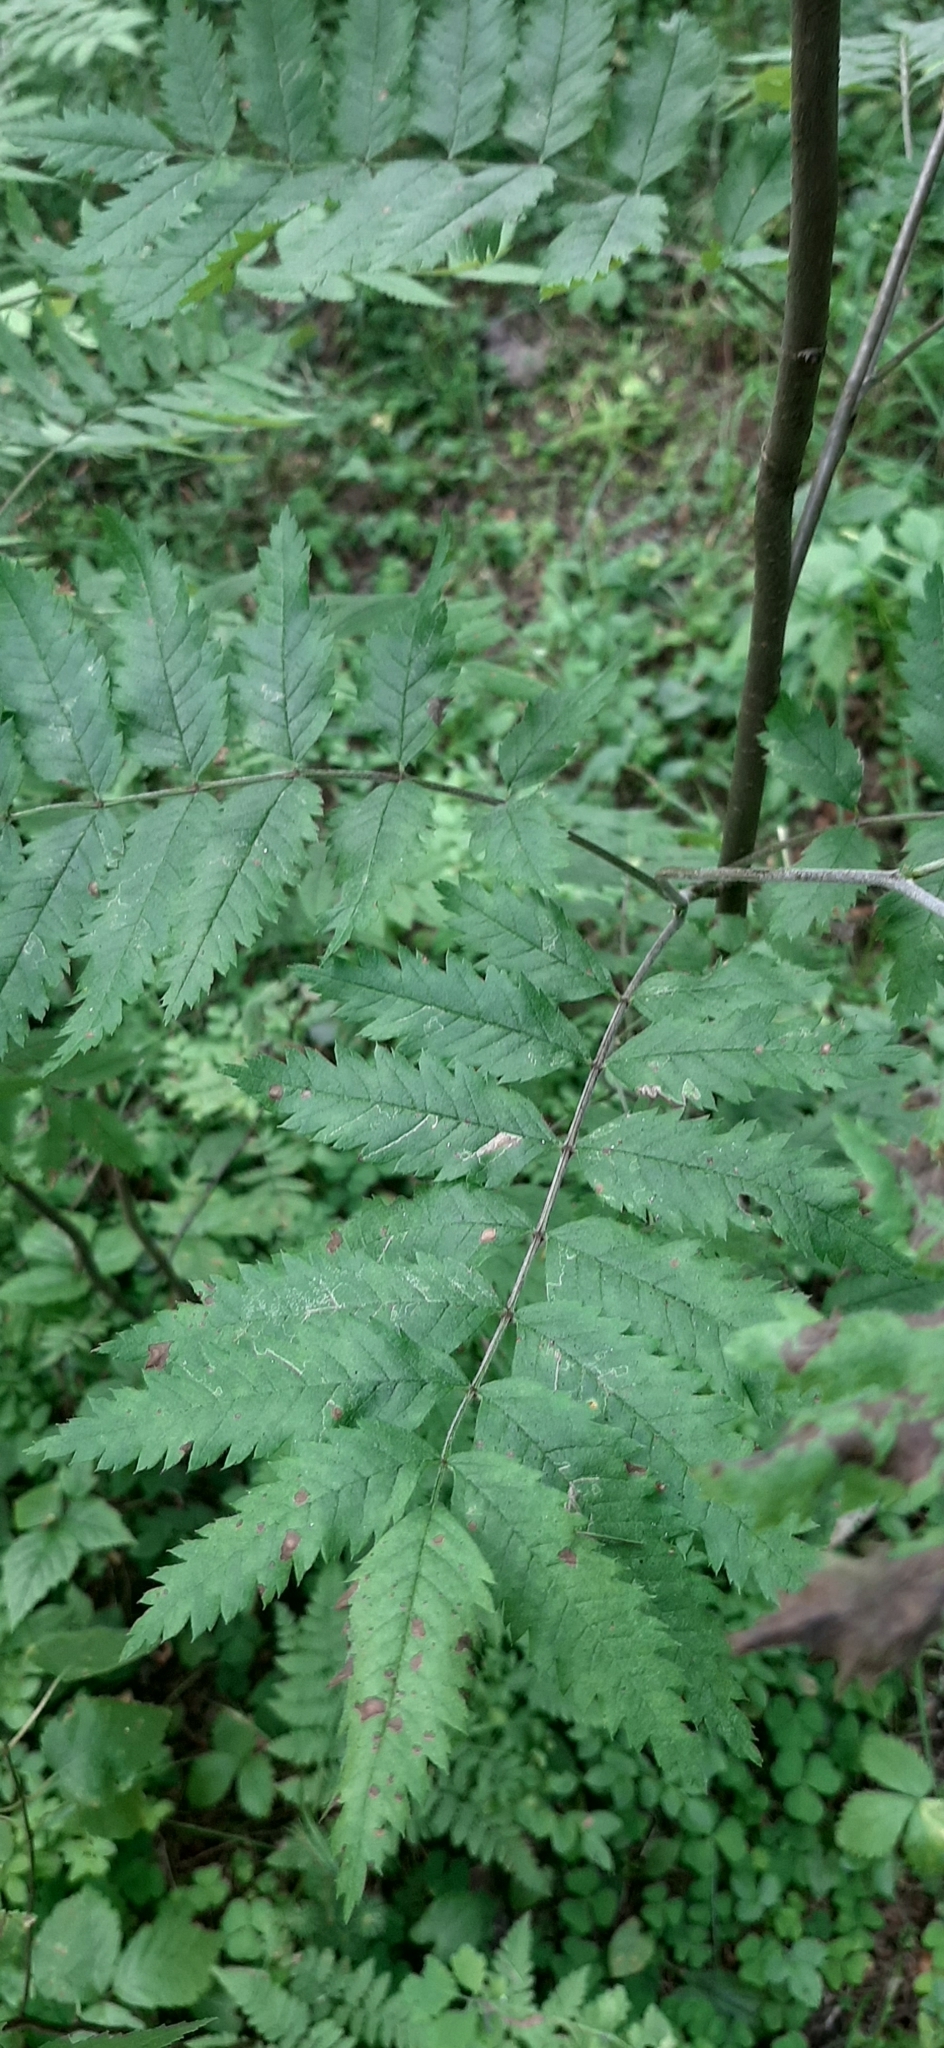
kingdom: Plantae
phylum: Tracheophyta
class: Magnoliopsida
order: Rosales
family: Rosaceae
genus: Sorbus
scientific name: Sorbus aucuparia
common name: Rowan
